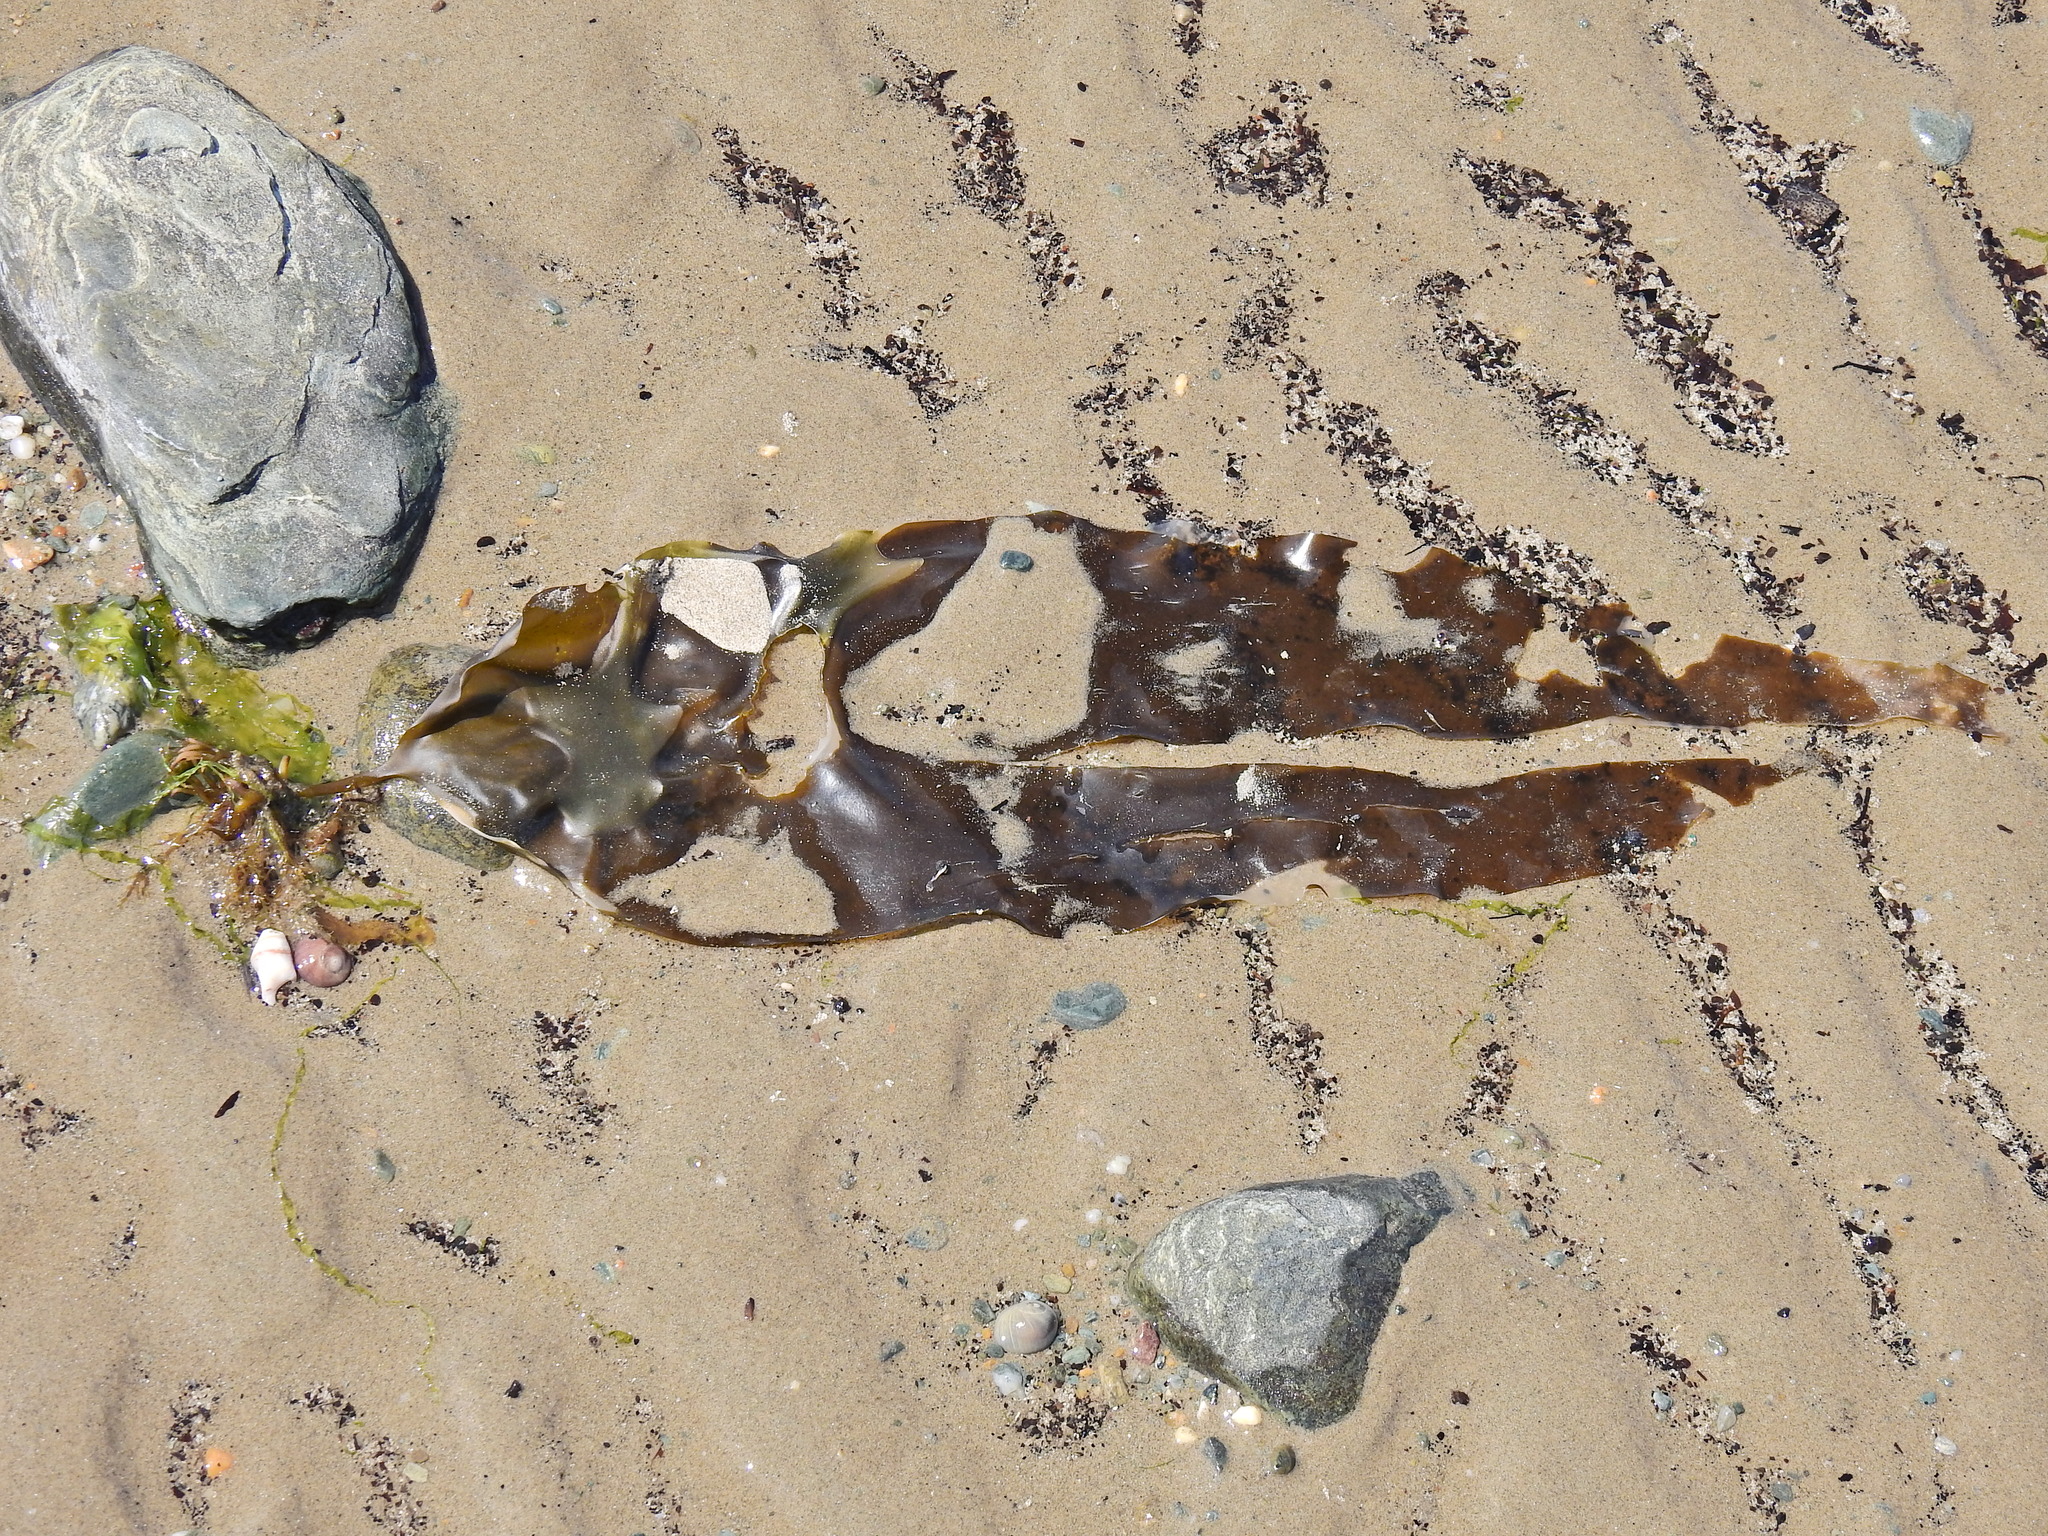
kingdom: Chromista
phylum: Ochrophyta
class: Phaeophyceae
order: Laminariales
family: Laminariaceae
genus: Saccharina
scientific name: Saccharina latissima
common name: Poor man's weather glass
